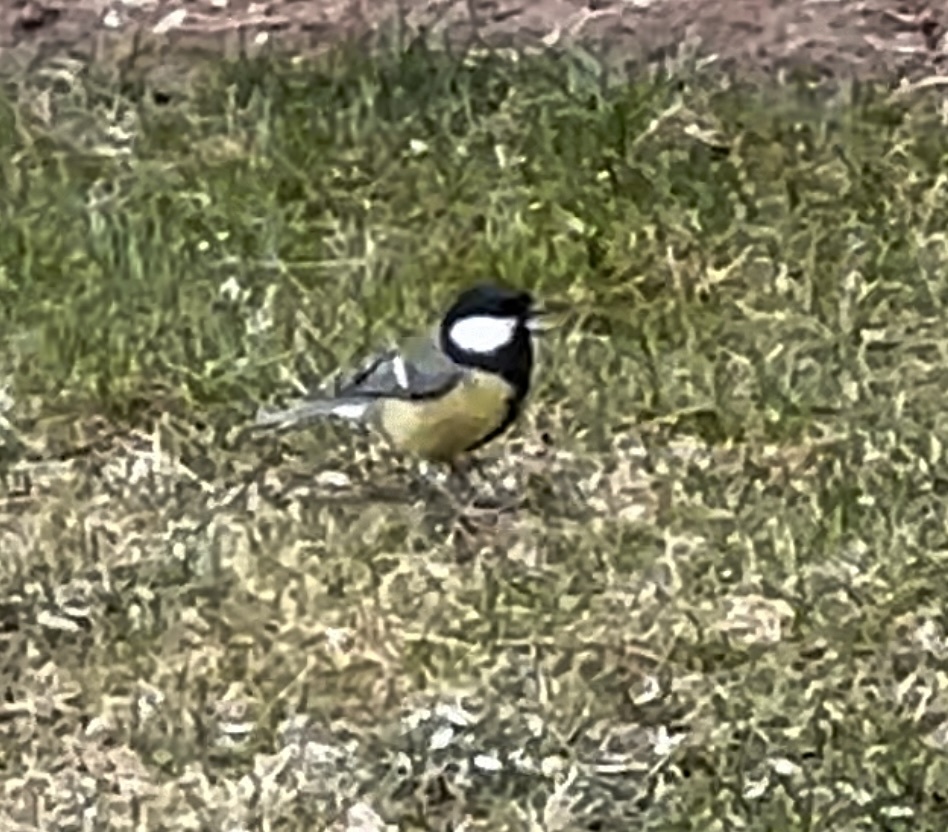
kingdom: Animalia
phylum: Chordata
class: Aves
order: Passeriformes
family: Paridae
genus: Parus
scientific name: Parus major
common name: Great tit
